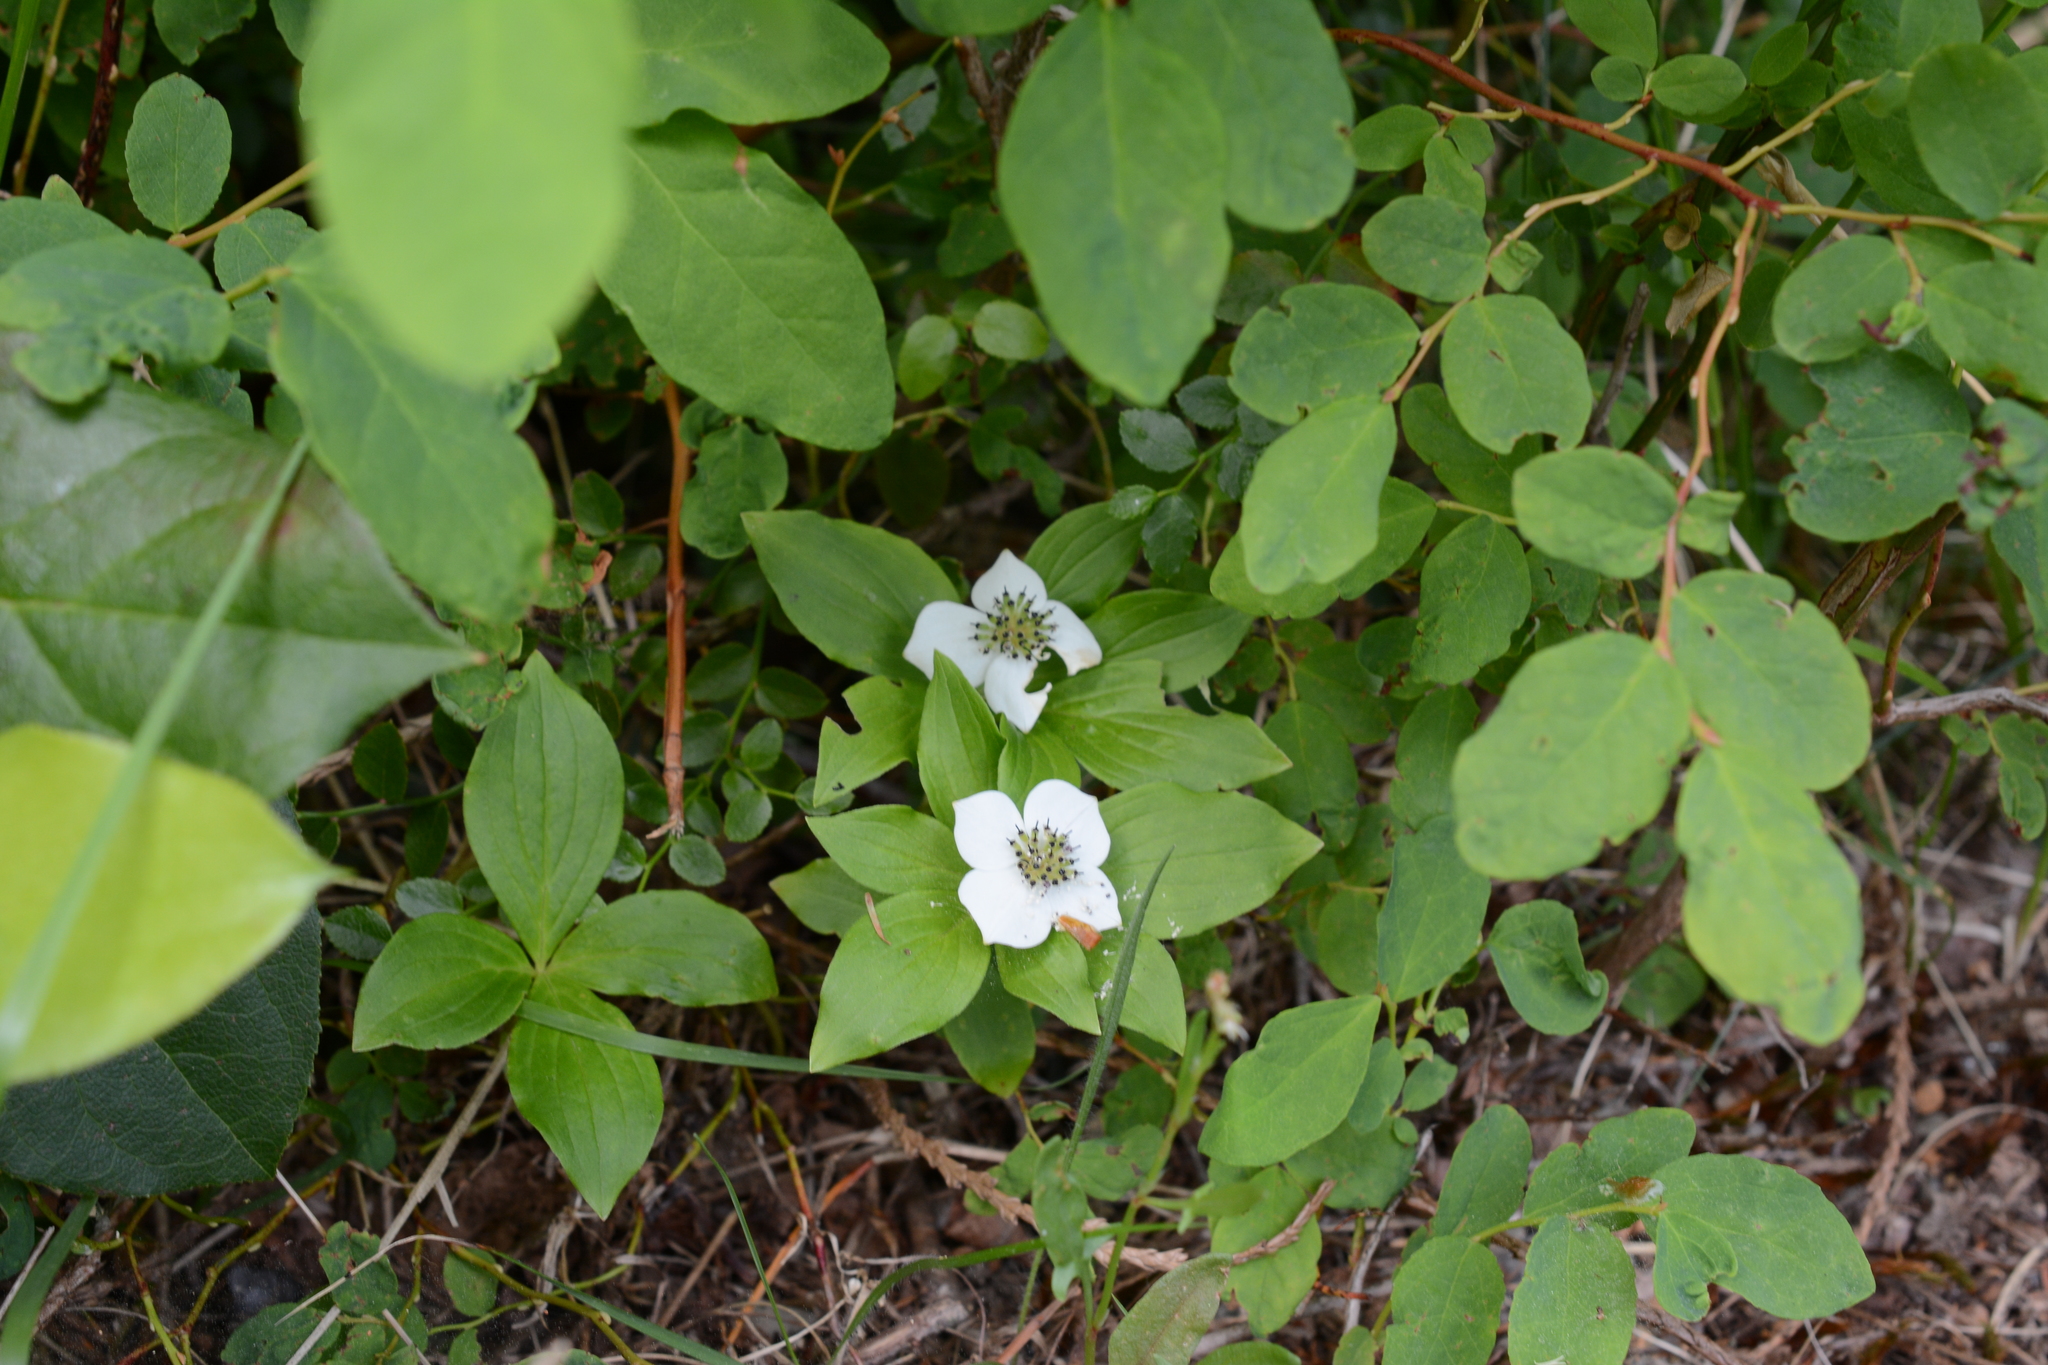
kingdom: Plantae
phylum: Tracheophyta
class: Magnoliopsida
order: Cornales
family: Cornaceae
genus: Cornus
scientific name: Cornus unalaschkensis
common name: Alaska bunchberry
